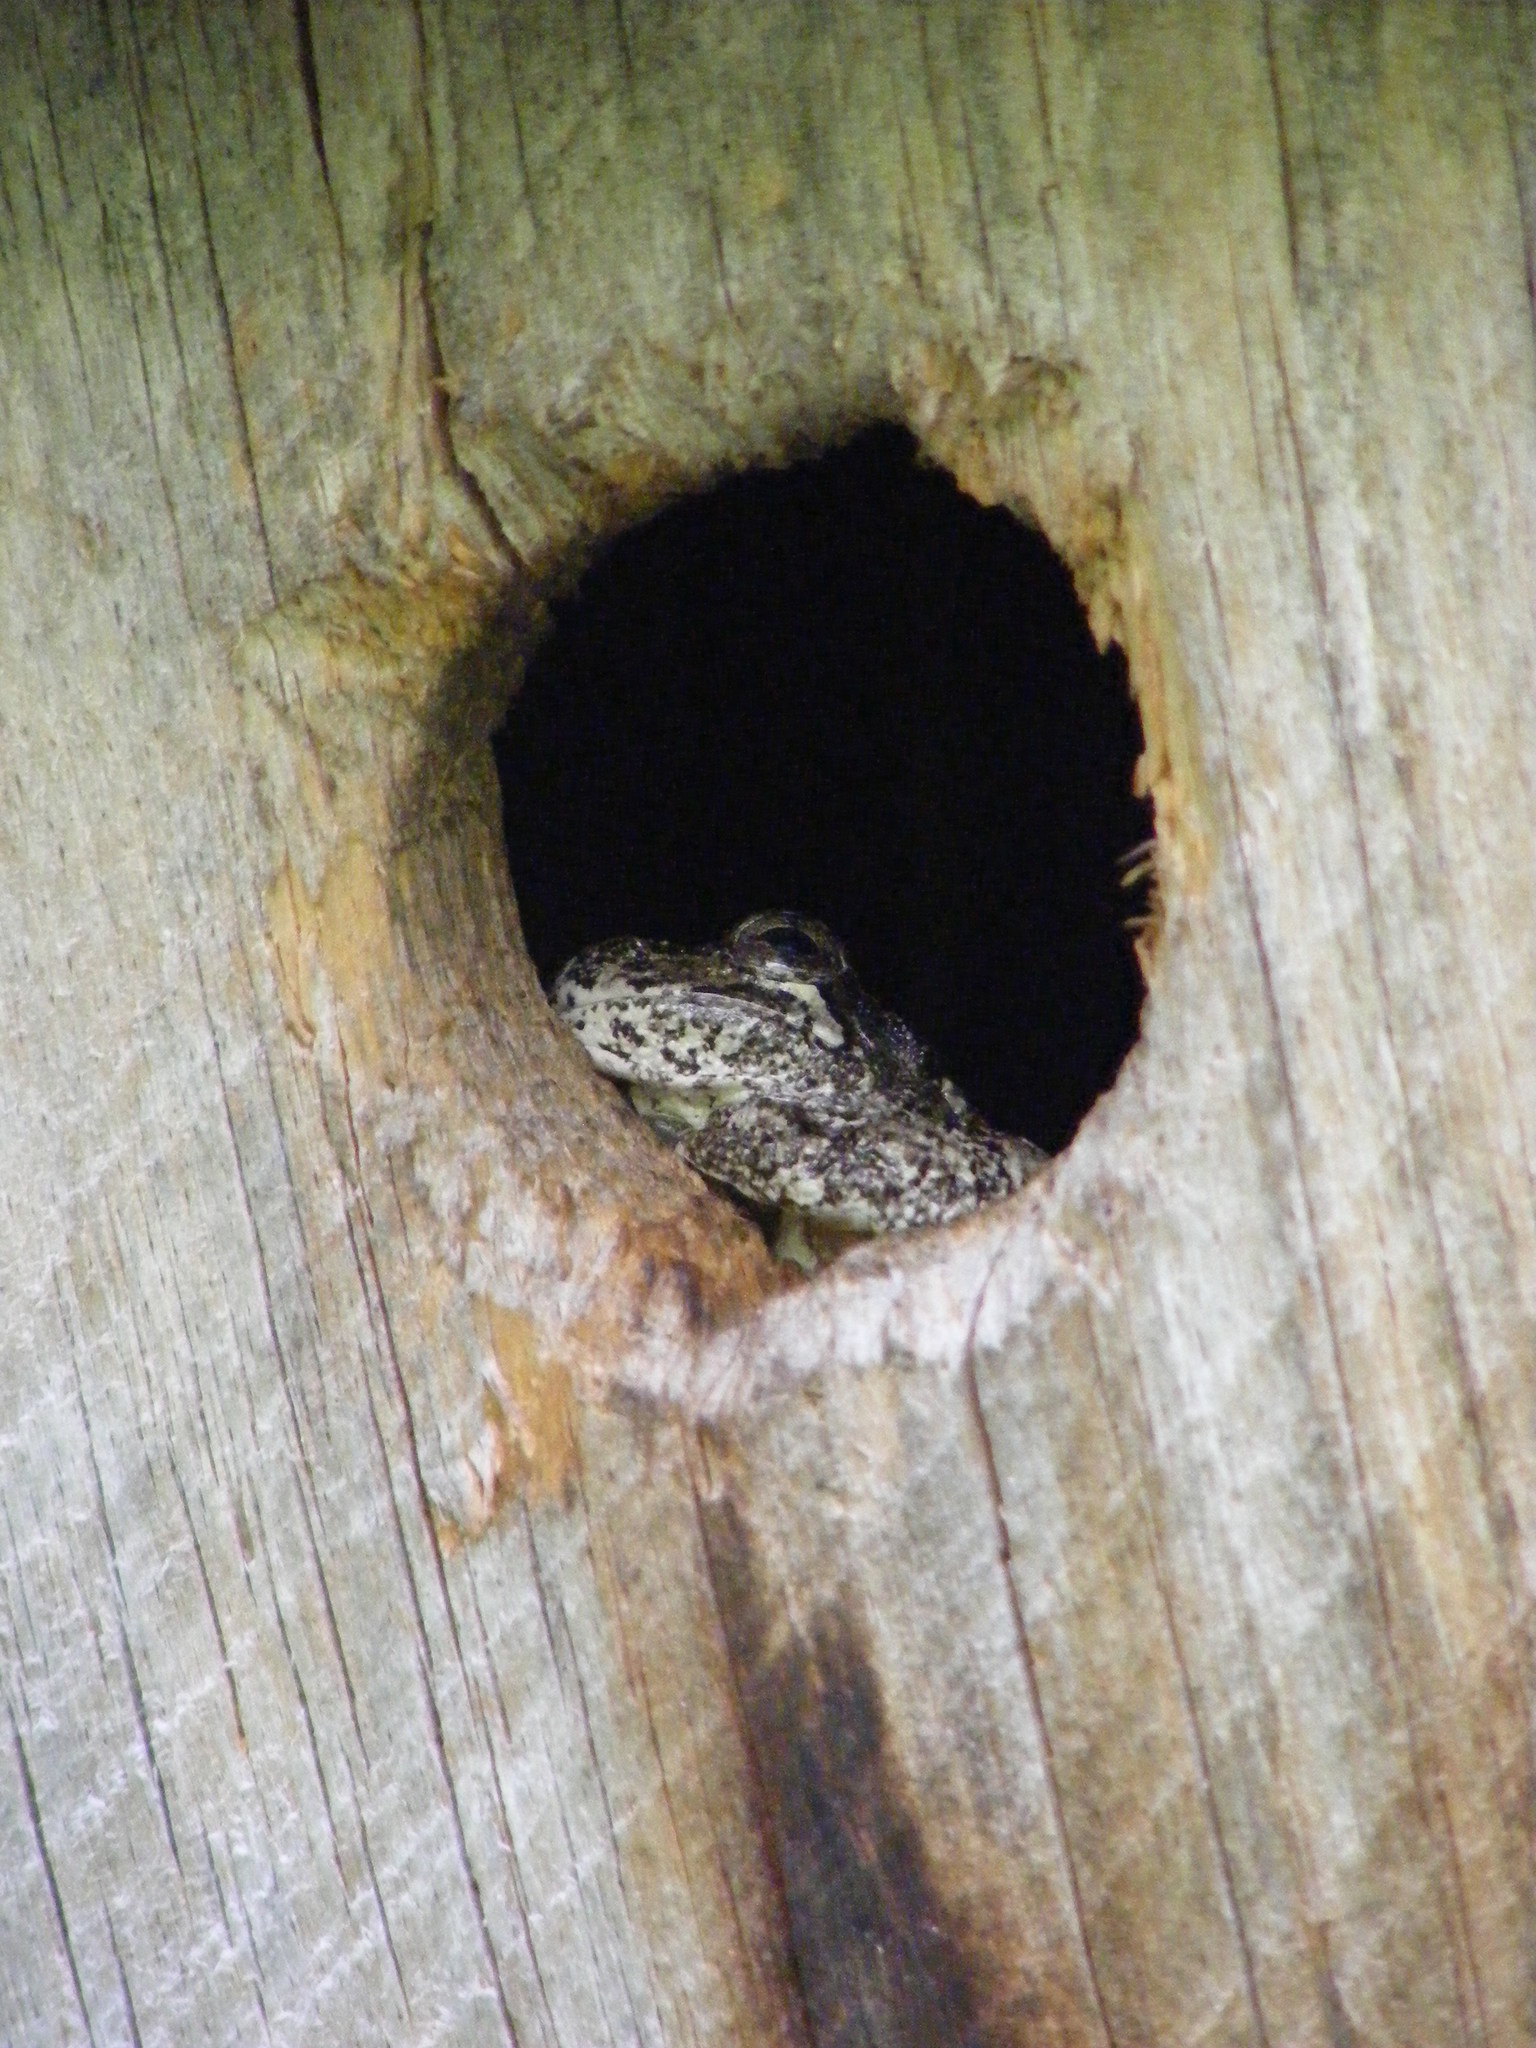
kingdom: Animalia
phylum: Chordata
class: Amphibia
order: Anura
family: Hylidae
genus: Dryophytes
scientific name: Dryophytes versicolor
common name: Gray treefrog
